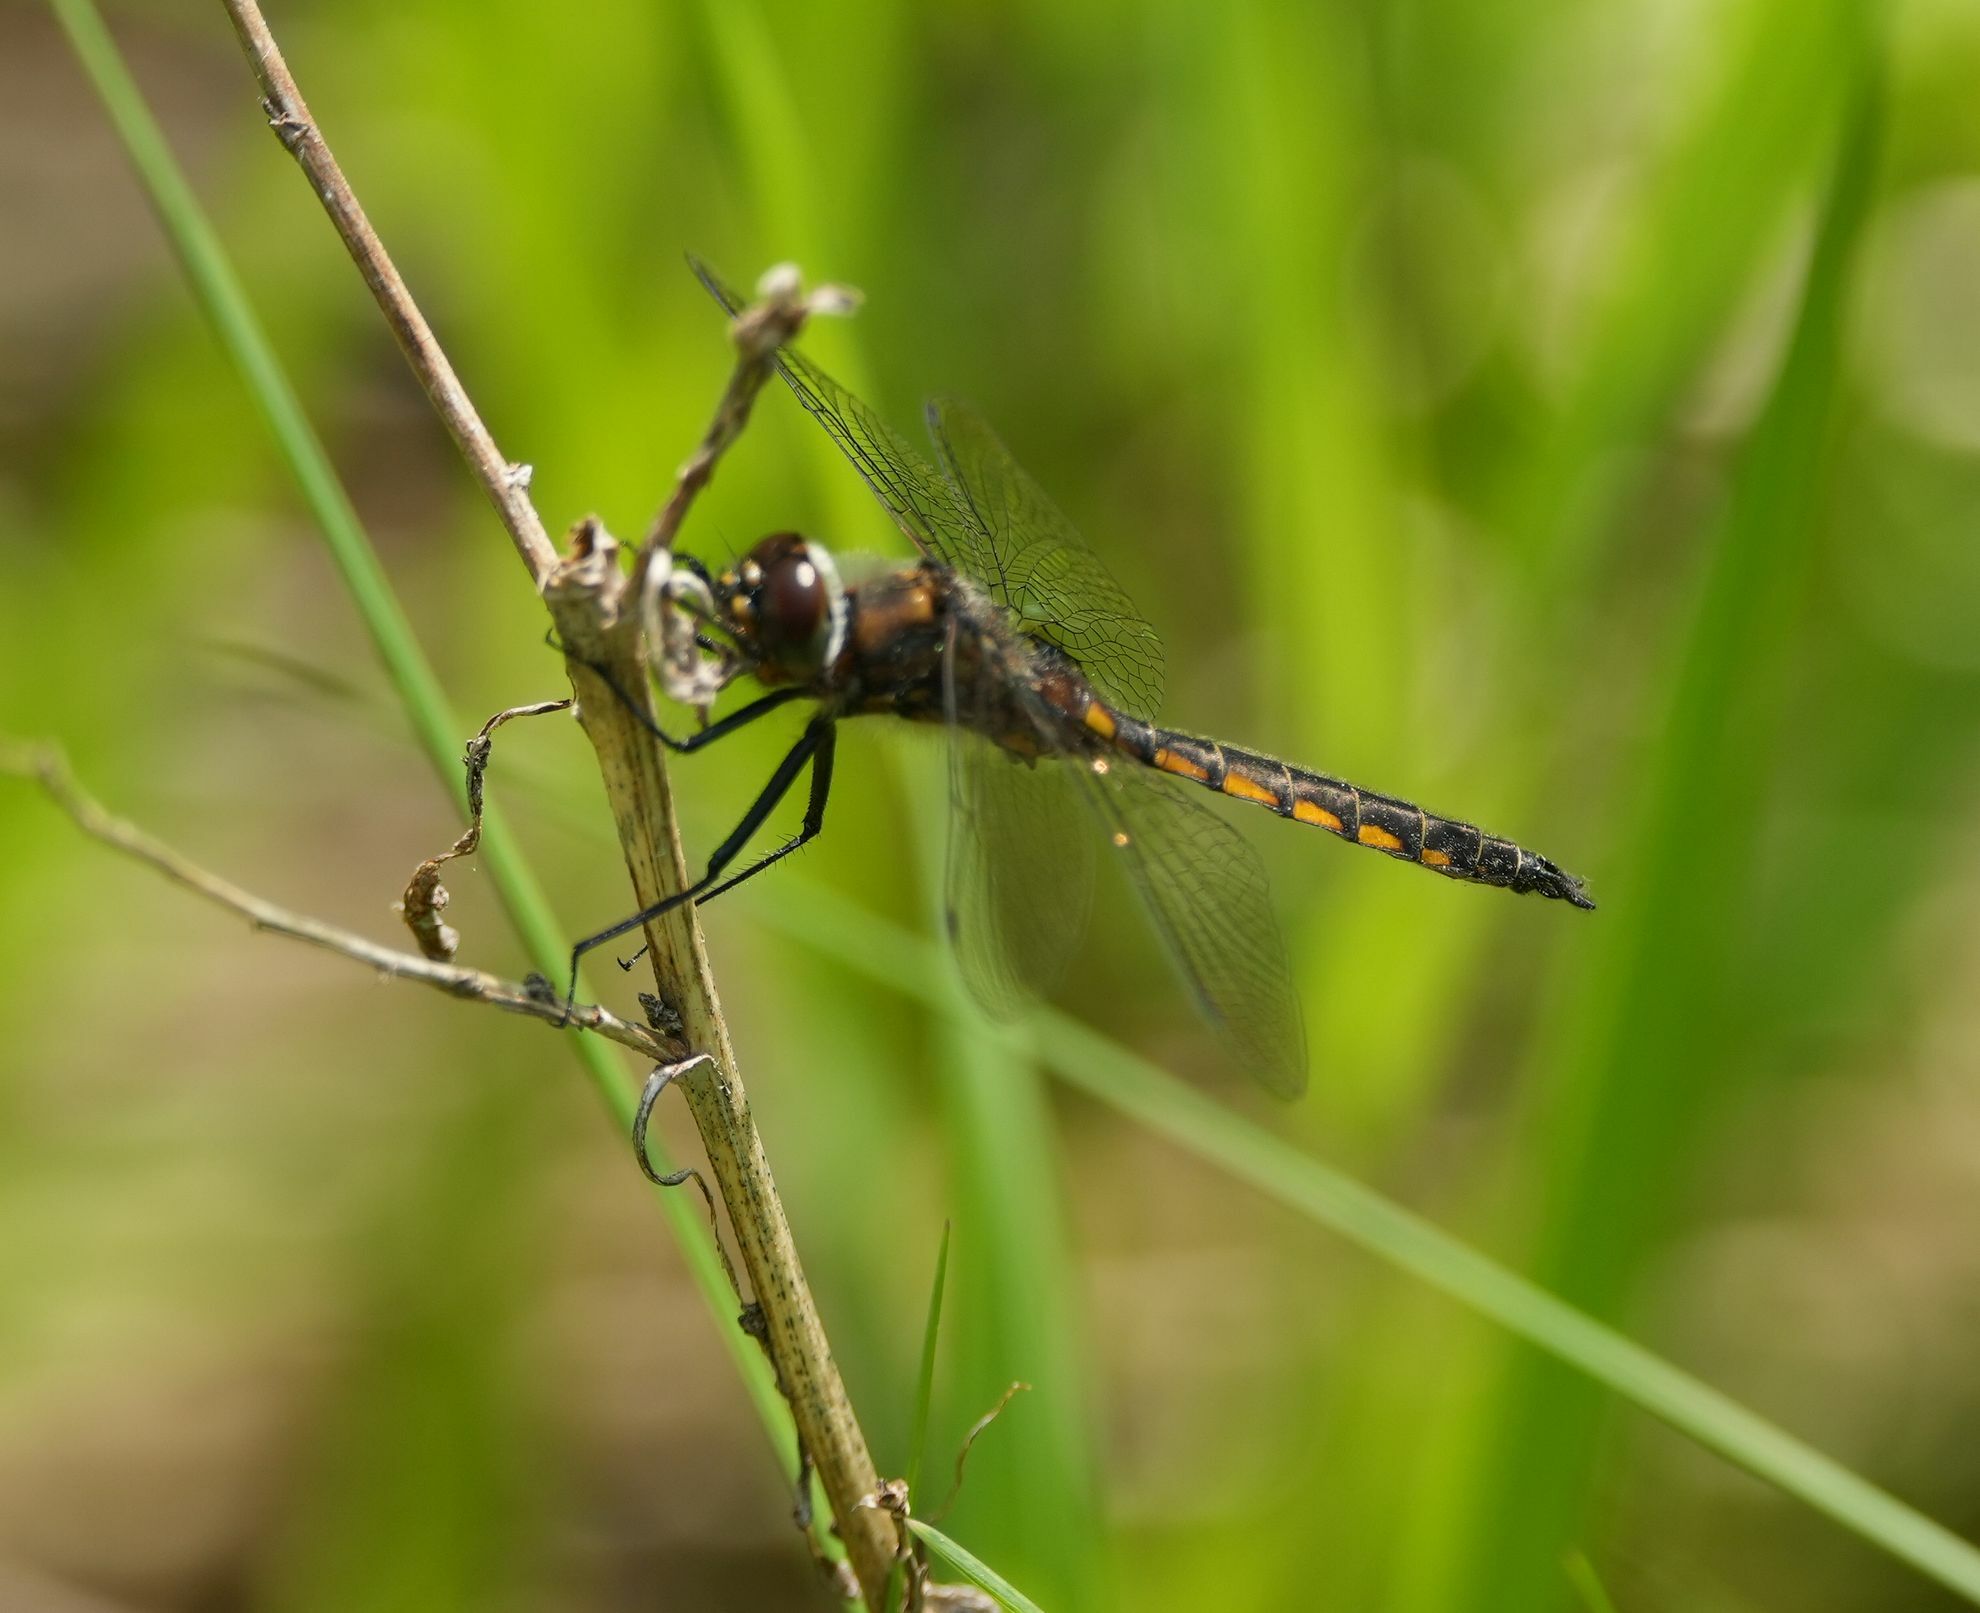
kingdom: Animalia
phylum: Arthropoda
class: Insecta
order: Odonata
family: Corduliidae
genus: Epitheca
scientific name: Epitheca spinigera
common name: Spiny baskettail
